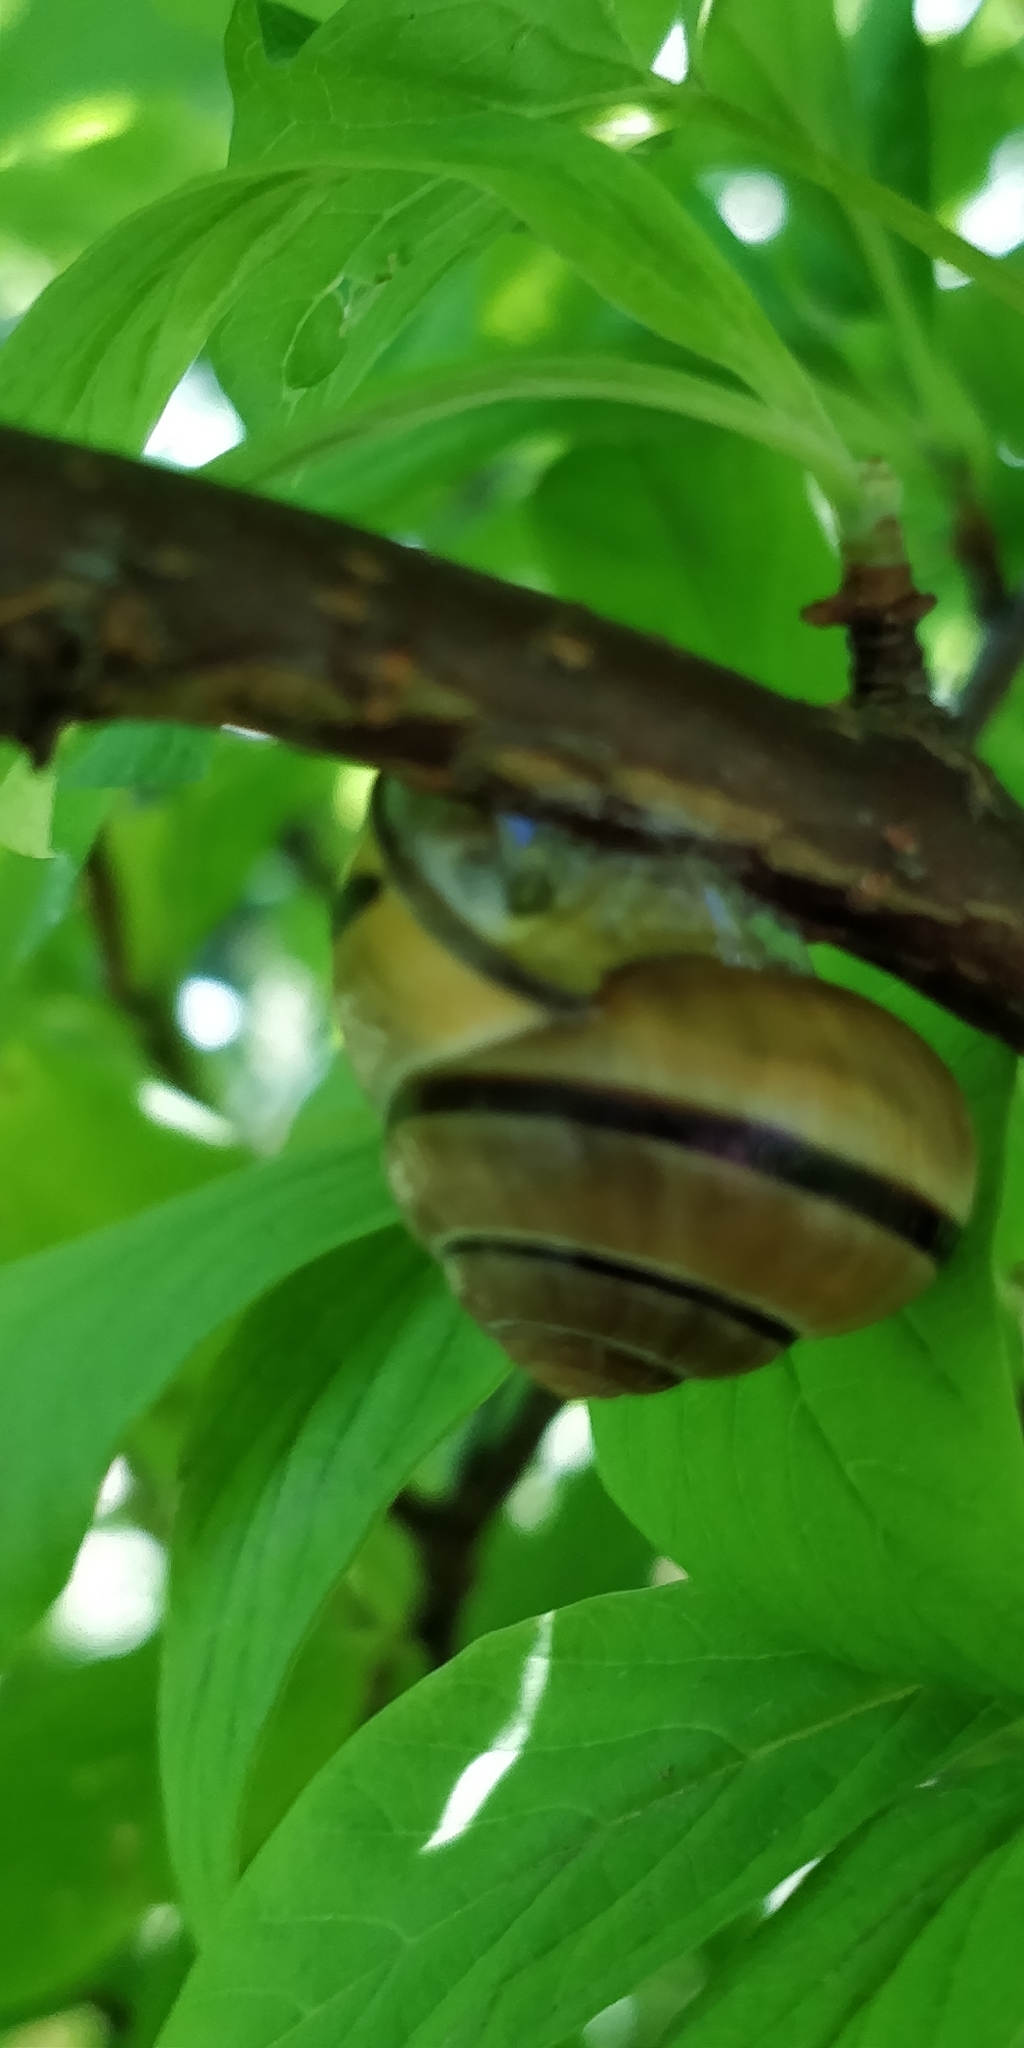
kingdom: Animalia
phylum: Mollusca
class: Gastropoda
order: Stylommatophora
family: Helicidae
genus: Cepaea
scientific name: Cepaea nemoralis
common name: Grovesnail
